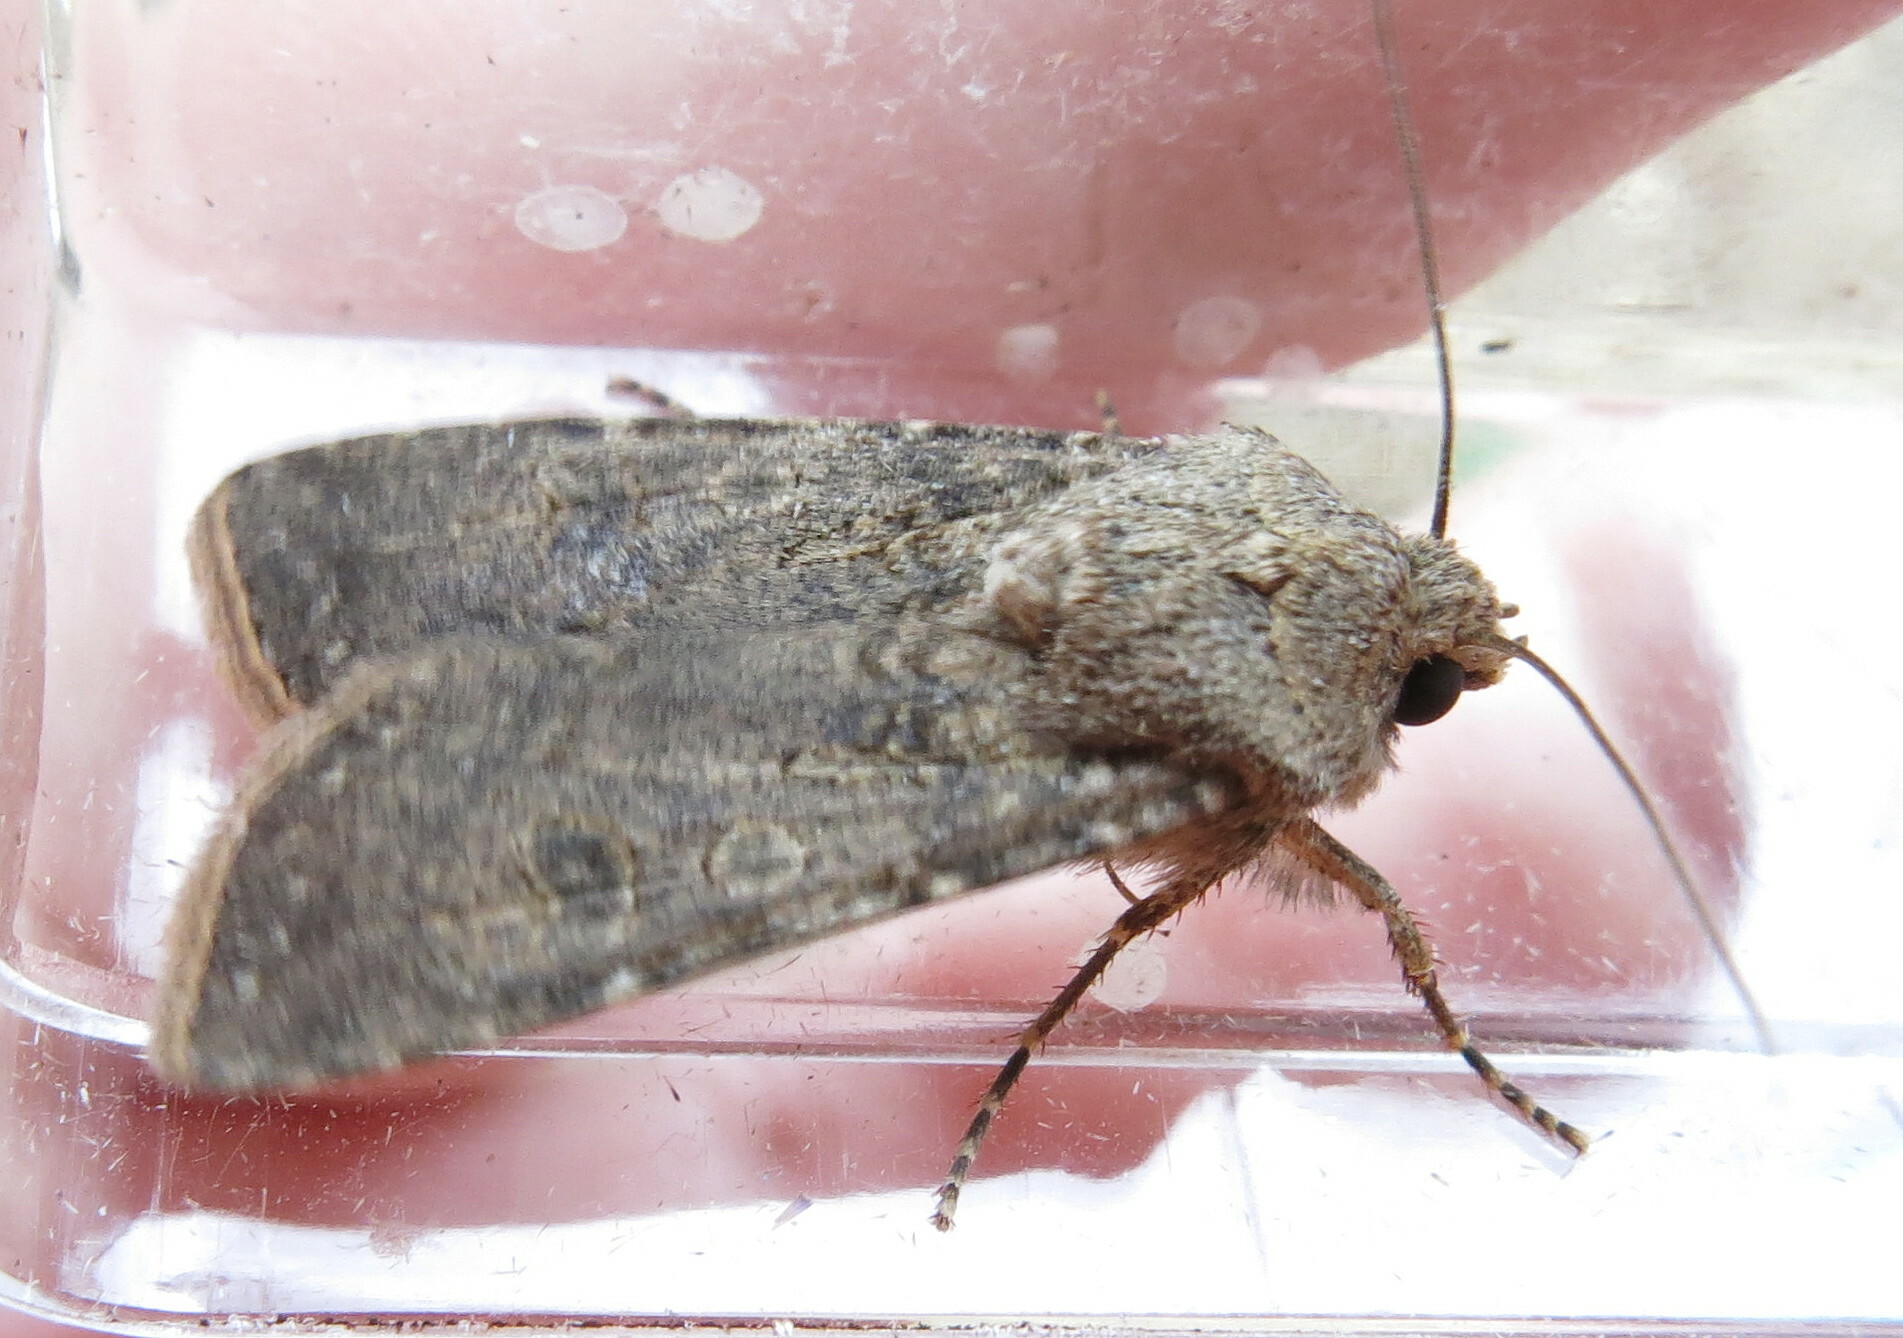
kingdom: Animalia
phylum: Arthropoda
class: Insecta
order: Lepidoptera
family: Noctuidae
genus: Agrotis
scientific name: Agrotis segetum
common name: Turnip moth
